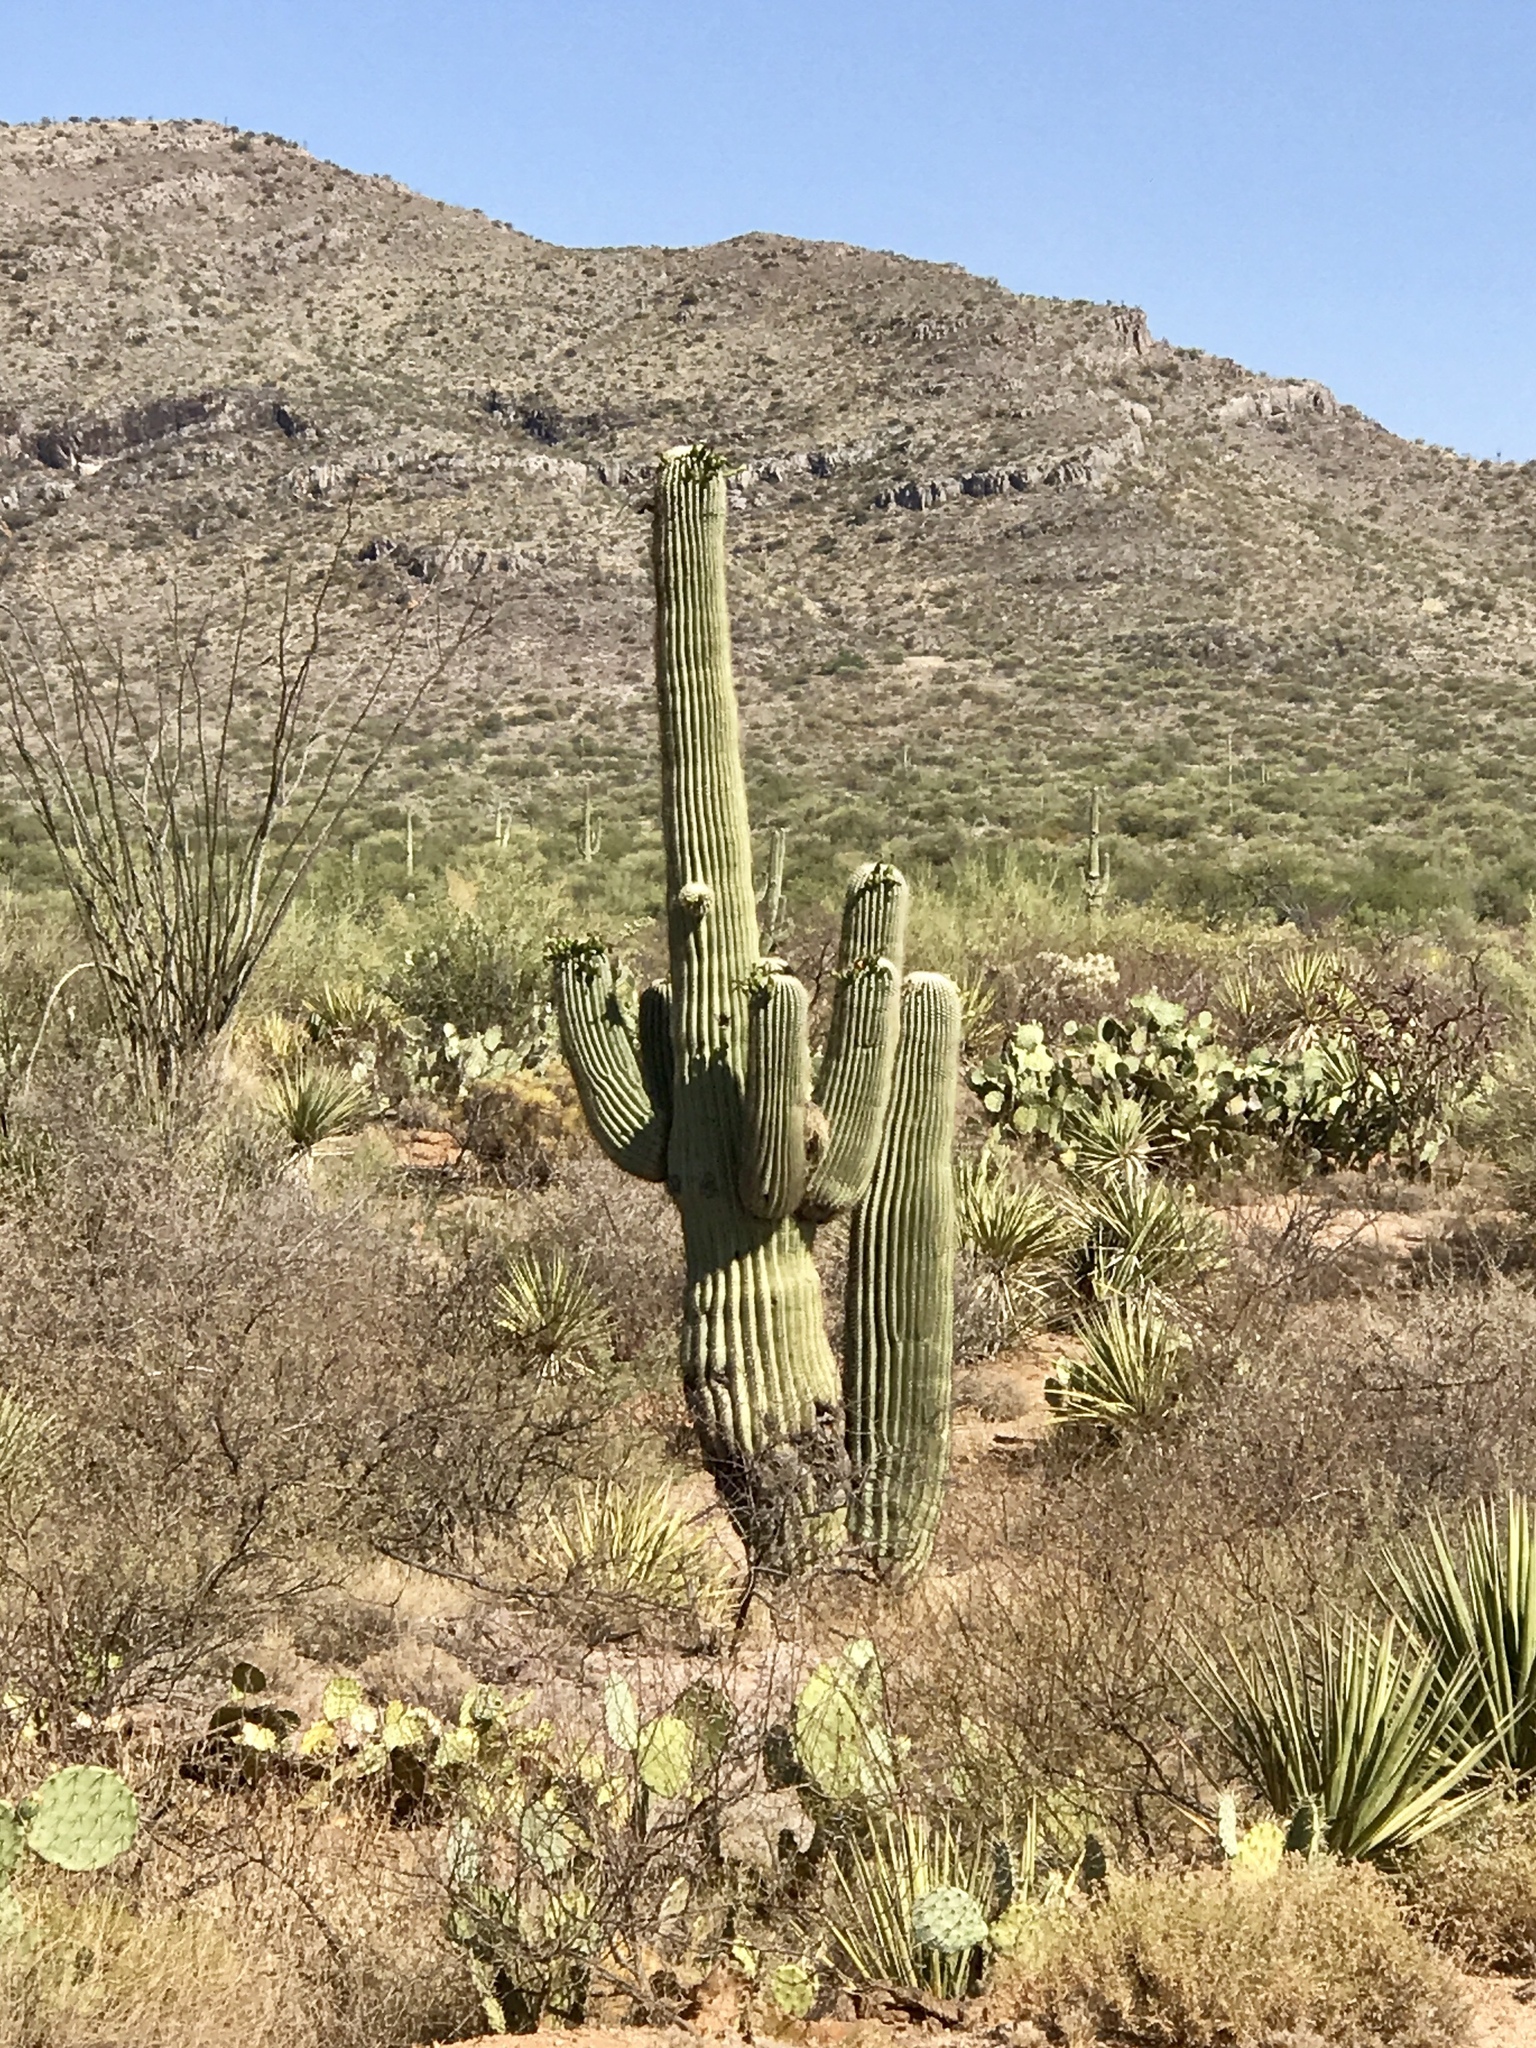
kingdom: Plantae
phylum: Tracheophyta
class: Magnoliopsida
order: Caryophyllales
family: Cactaceae
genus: Carnegiea
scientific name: Carnegiea gigantea
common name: Saguaro
